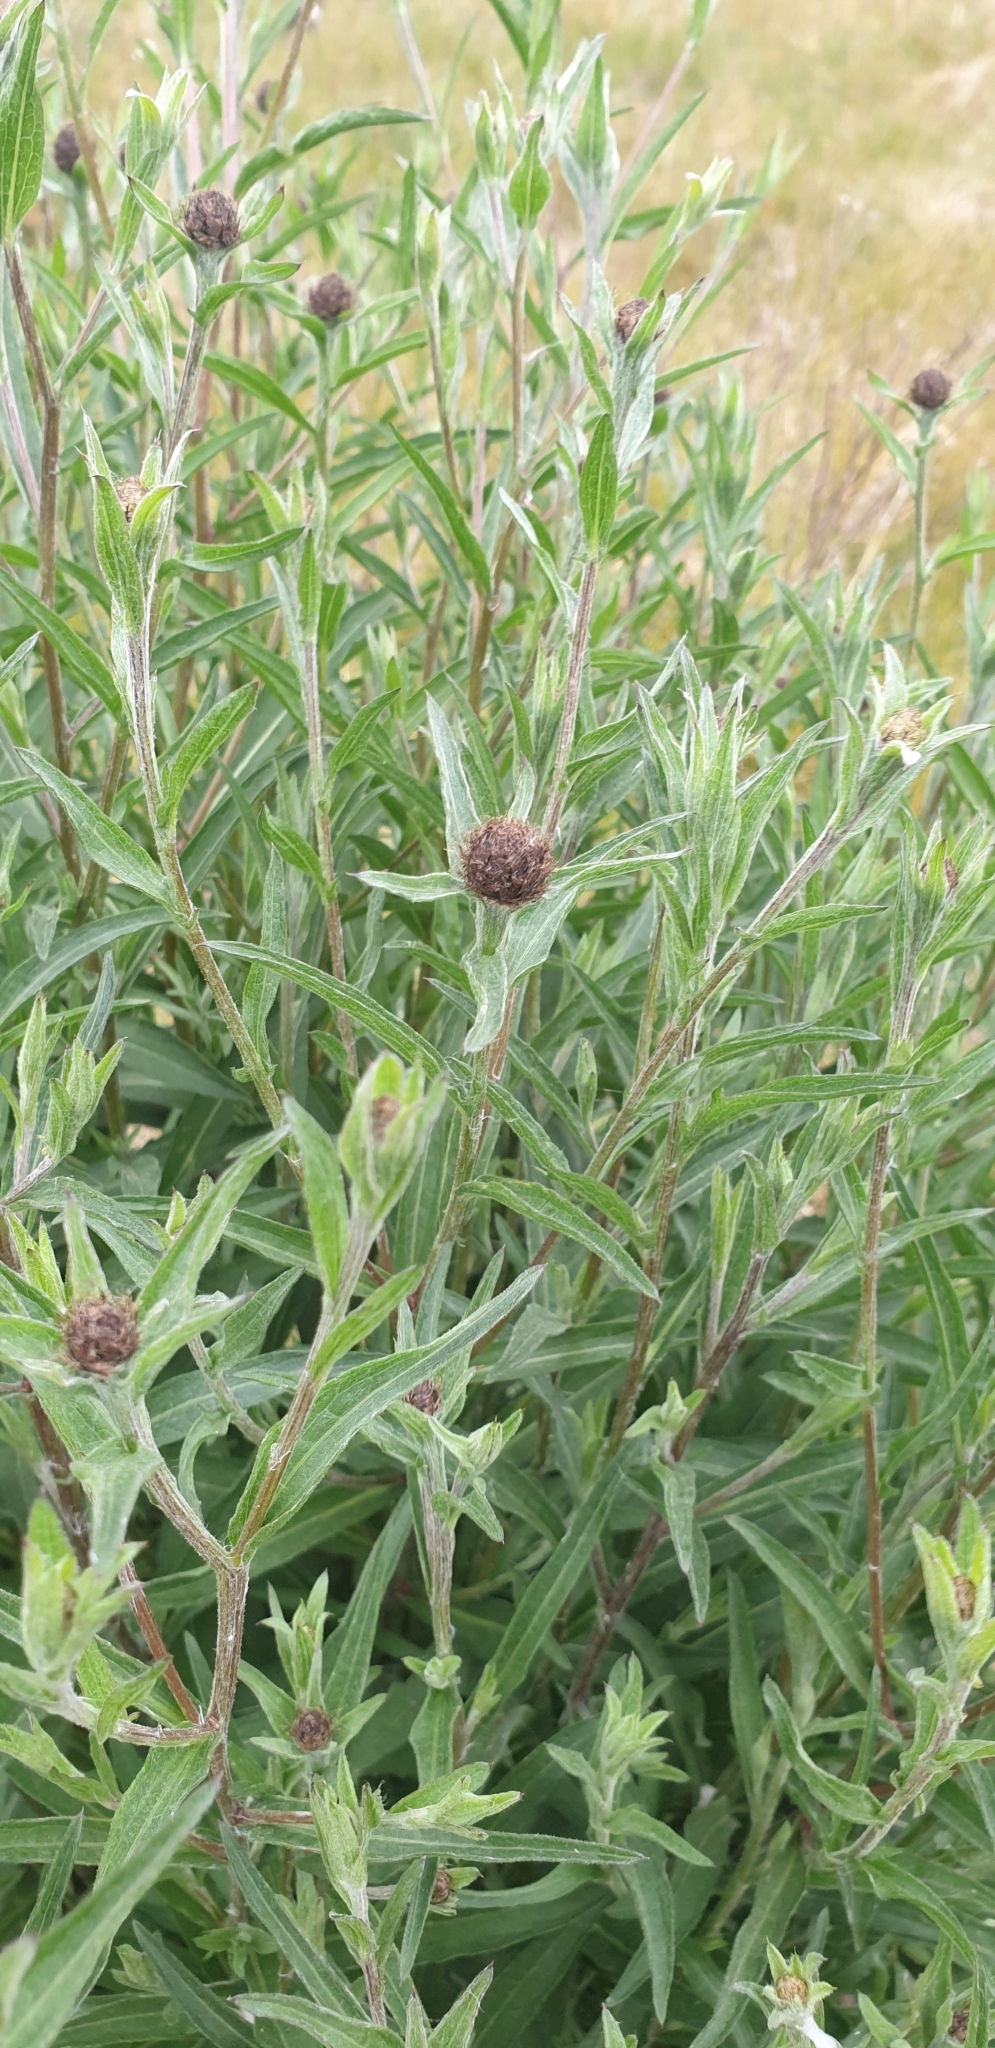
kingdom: Plantae
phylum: Tracheophyta
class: Magnoliopsida
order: Asterales
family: Asteraceae
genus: Centaurea
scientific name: Centaurea nigra
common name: Lesser knapweed
